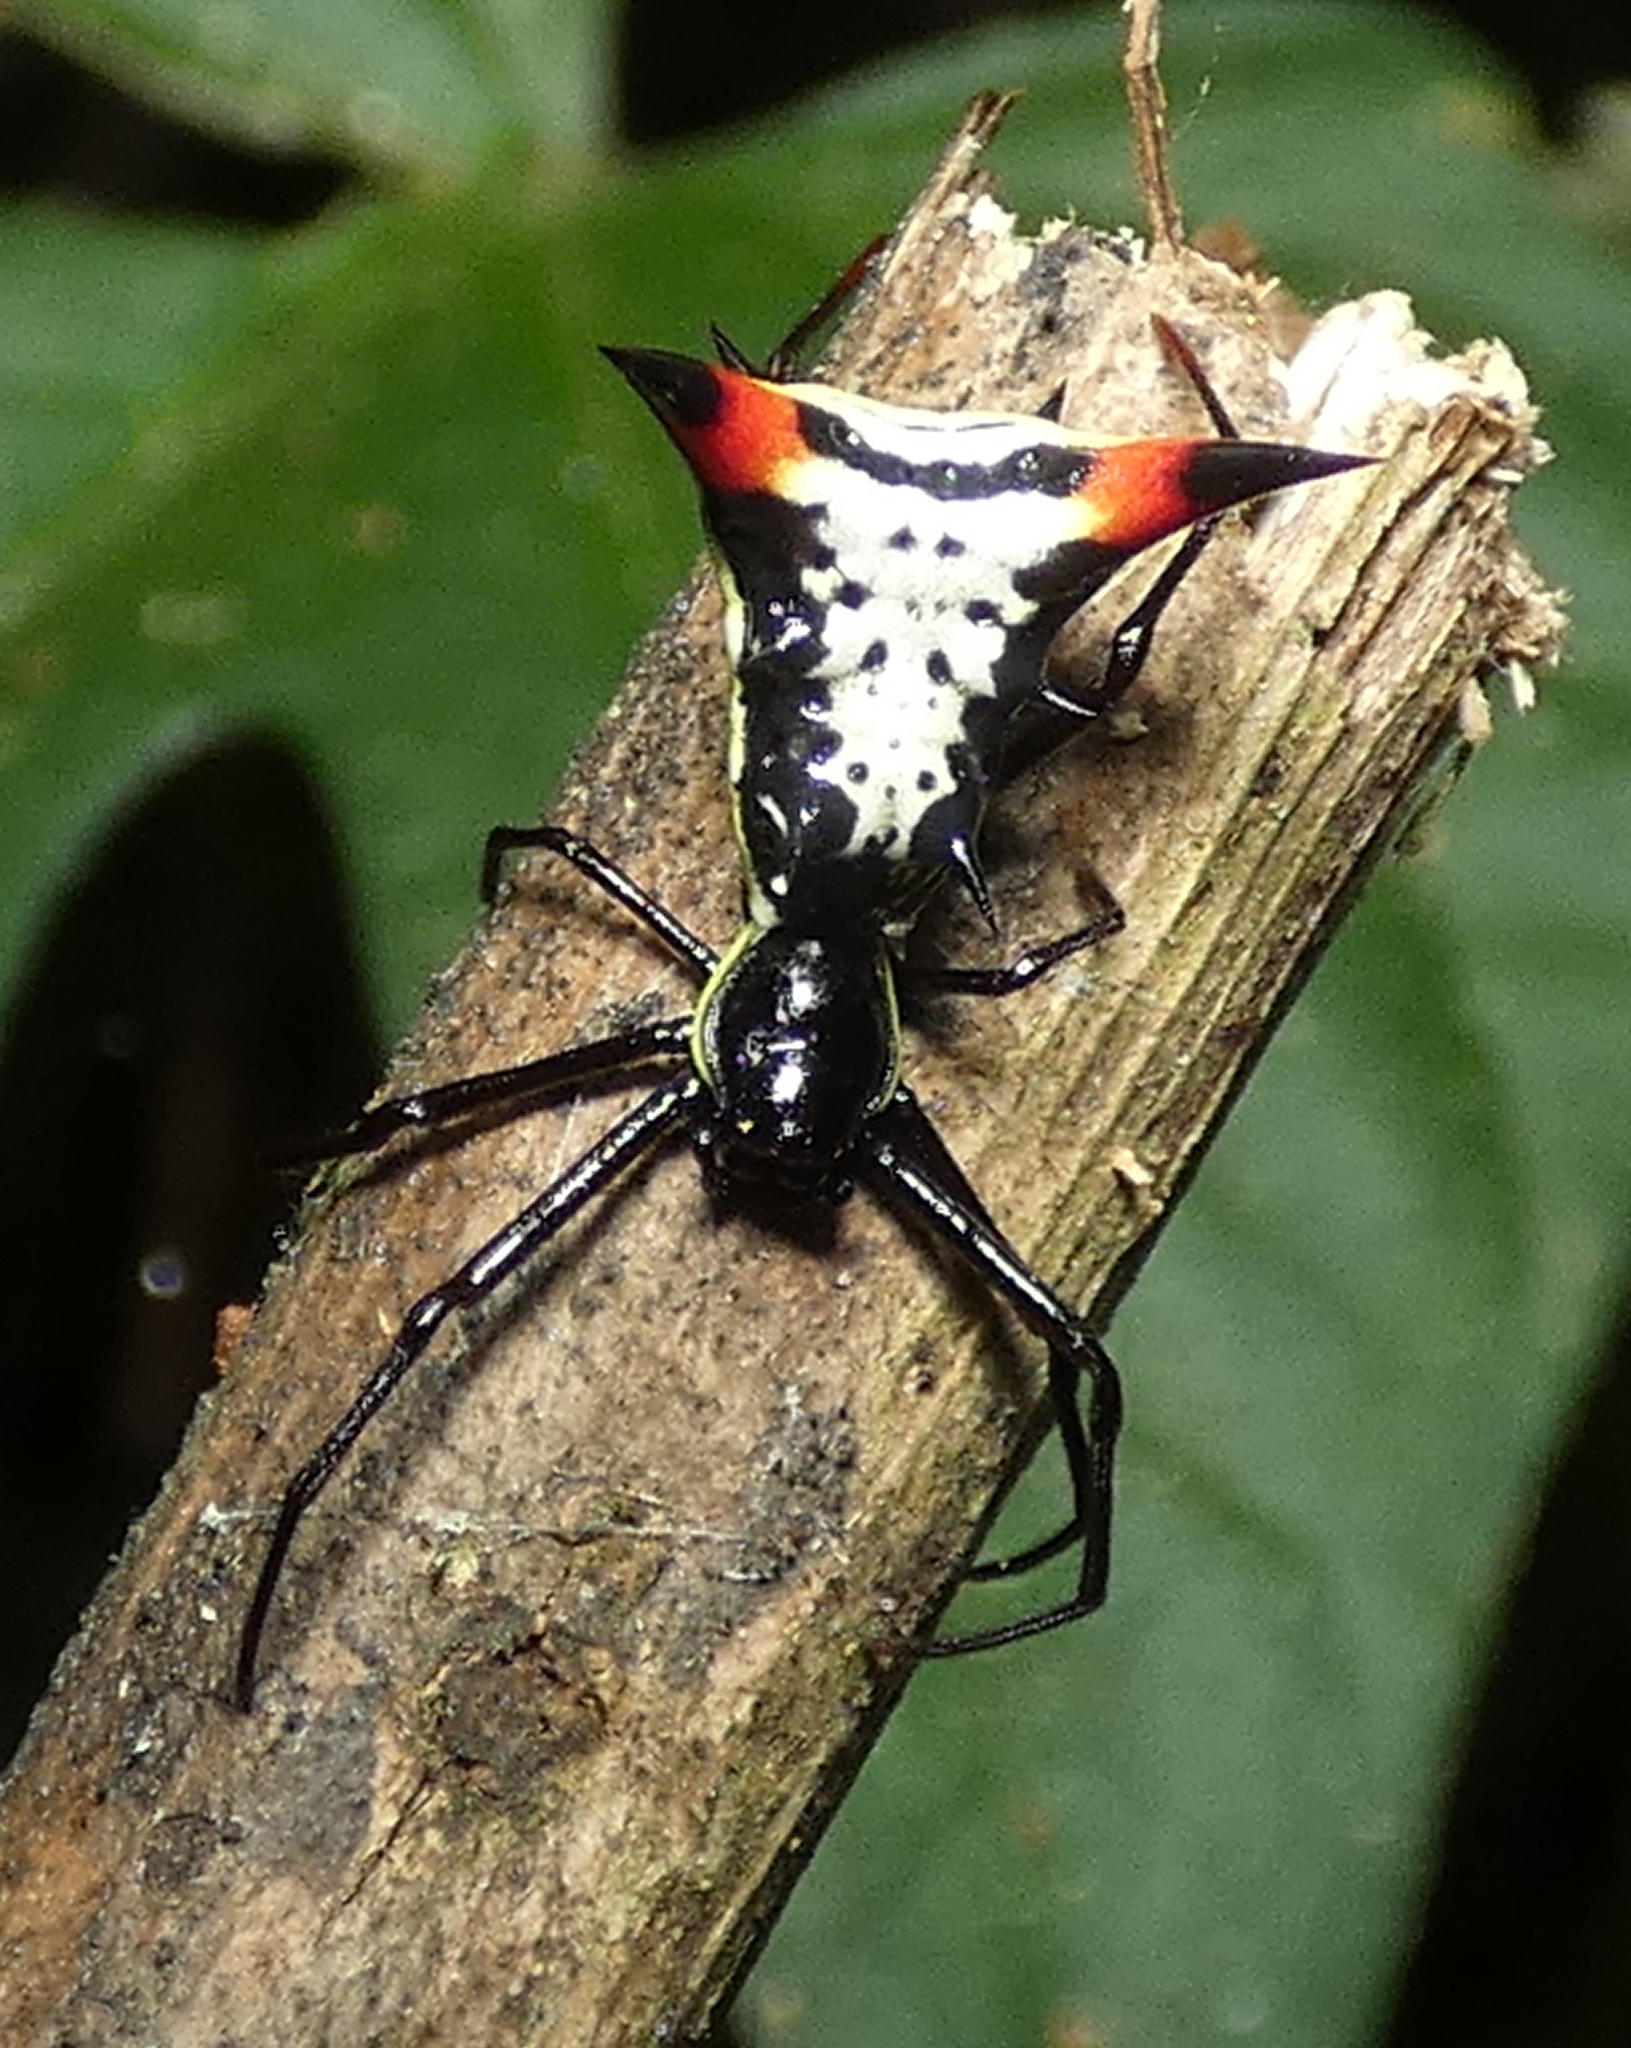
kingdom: Animalia
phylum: Arthropoda
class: Arachnida
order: Araneae
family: Araneidae
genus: Micrathena
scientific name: Micrathena schreibersi
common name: Orb weavers
